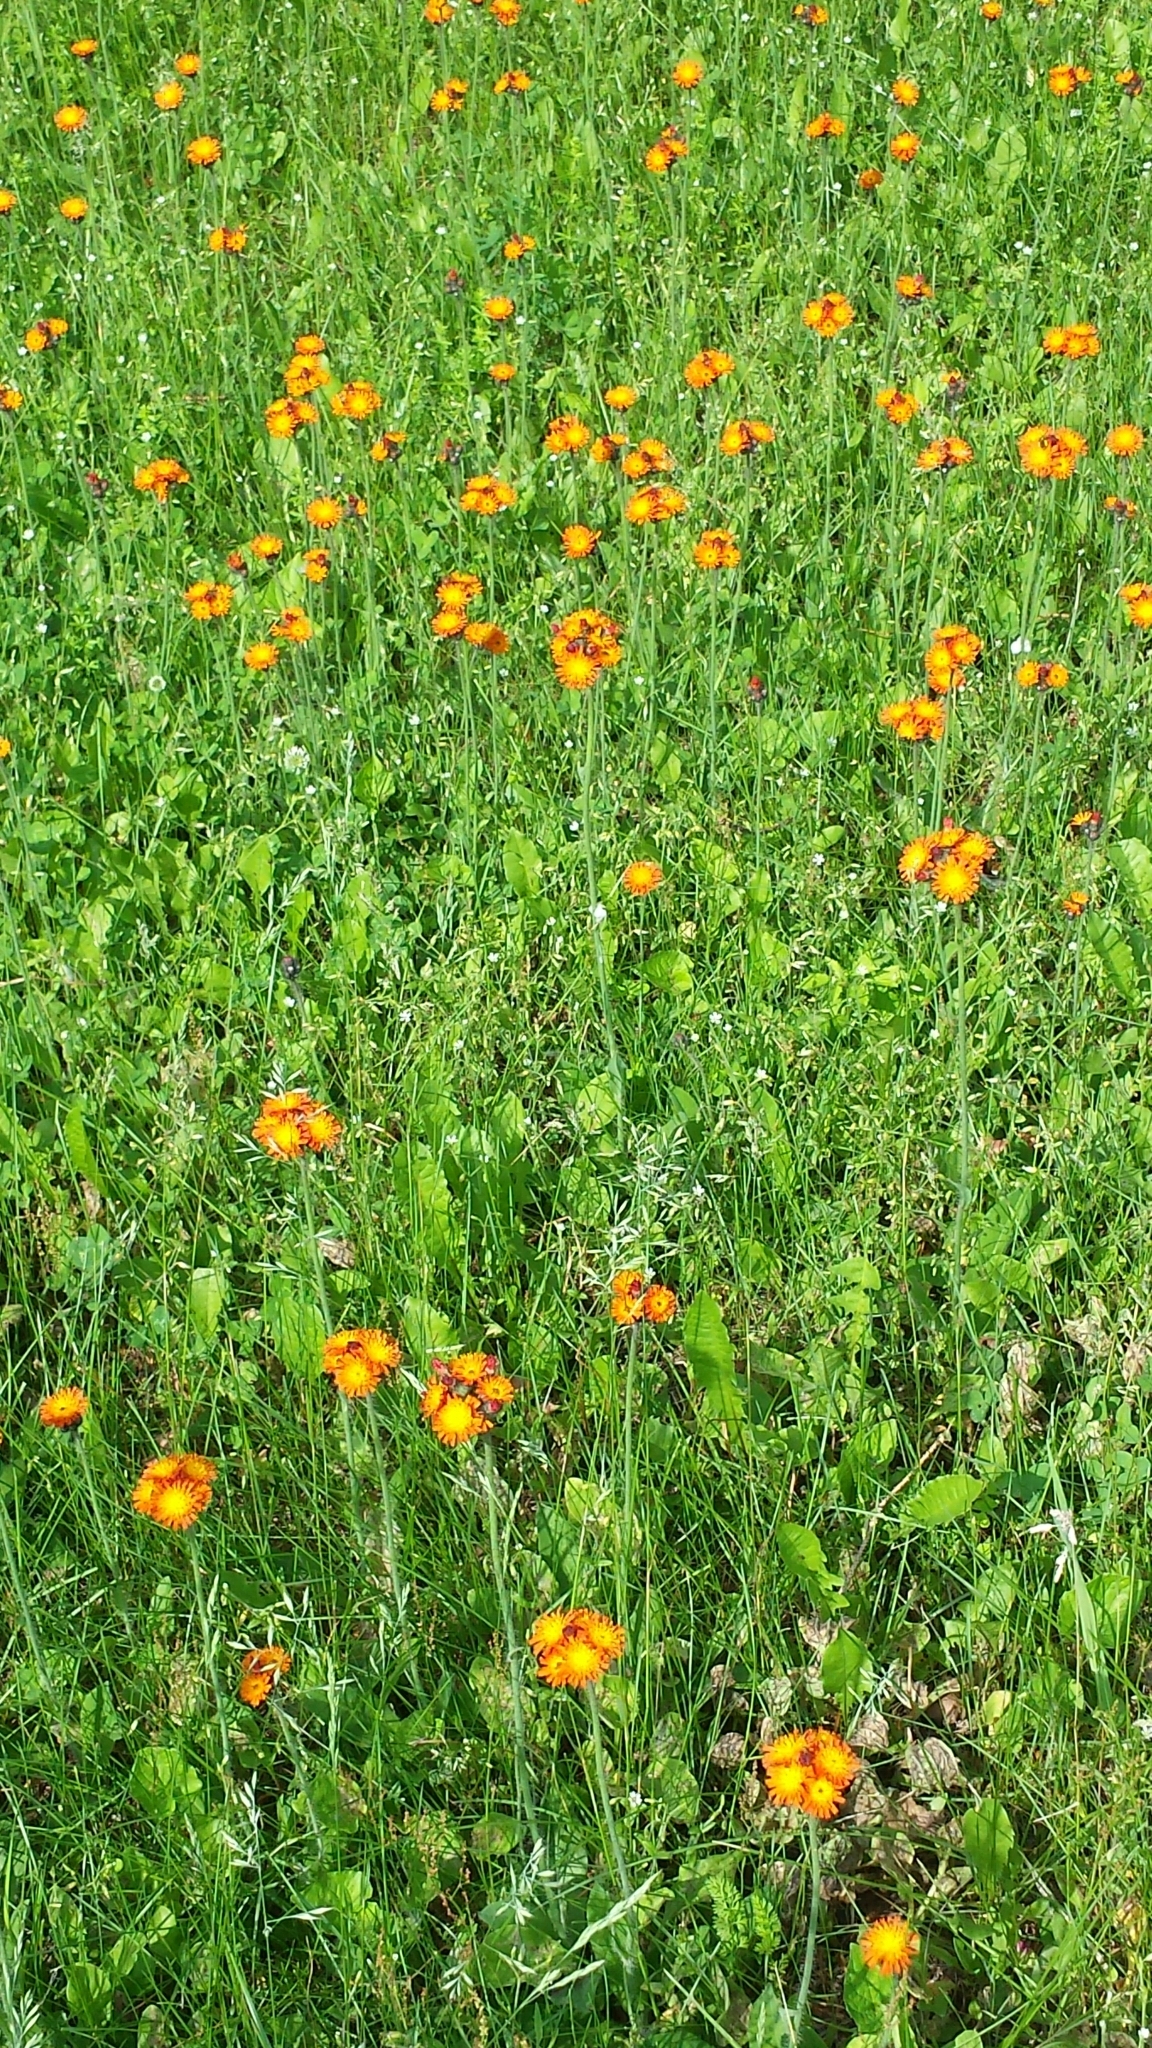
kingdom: Plantae
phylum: Tracheophyta
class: Magnoliopsida
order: Asterales
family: Asteraceae
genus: Pilosella
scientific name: Pilosella aurantiaca
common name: Fox-and-cubs
